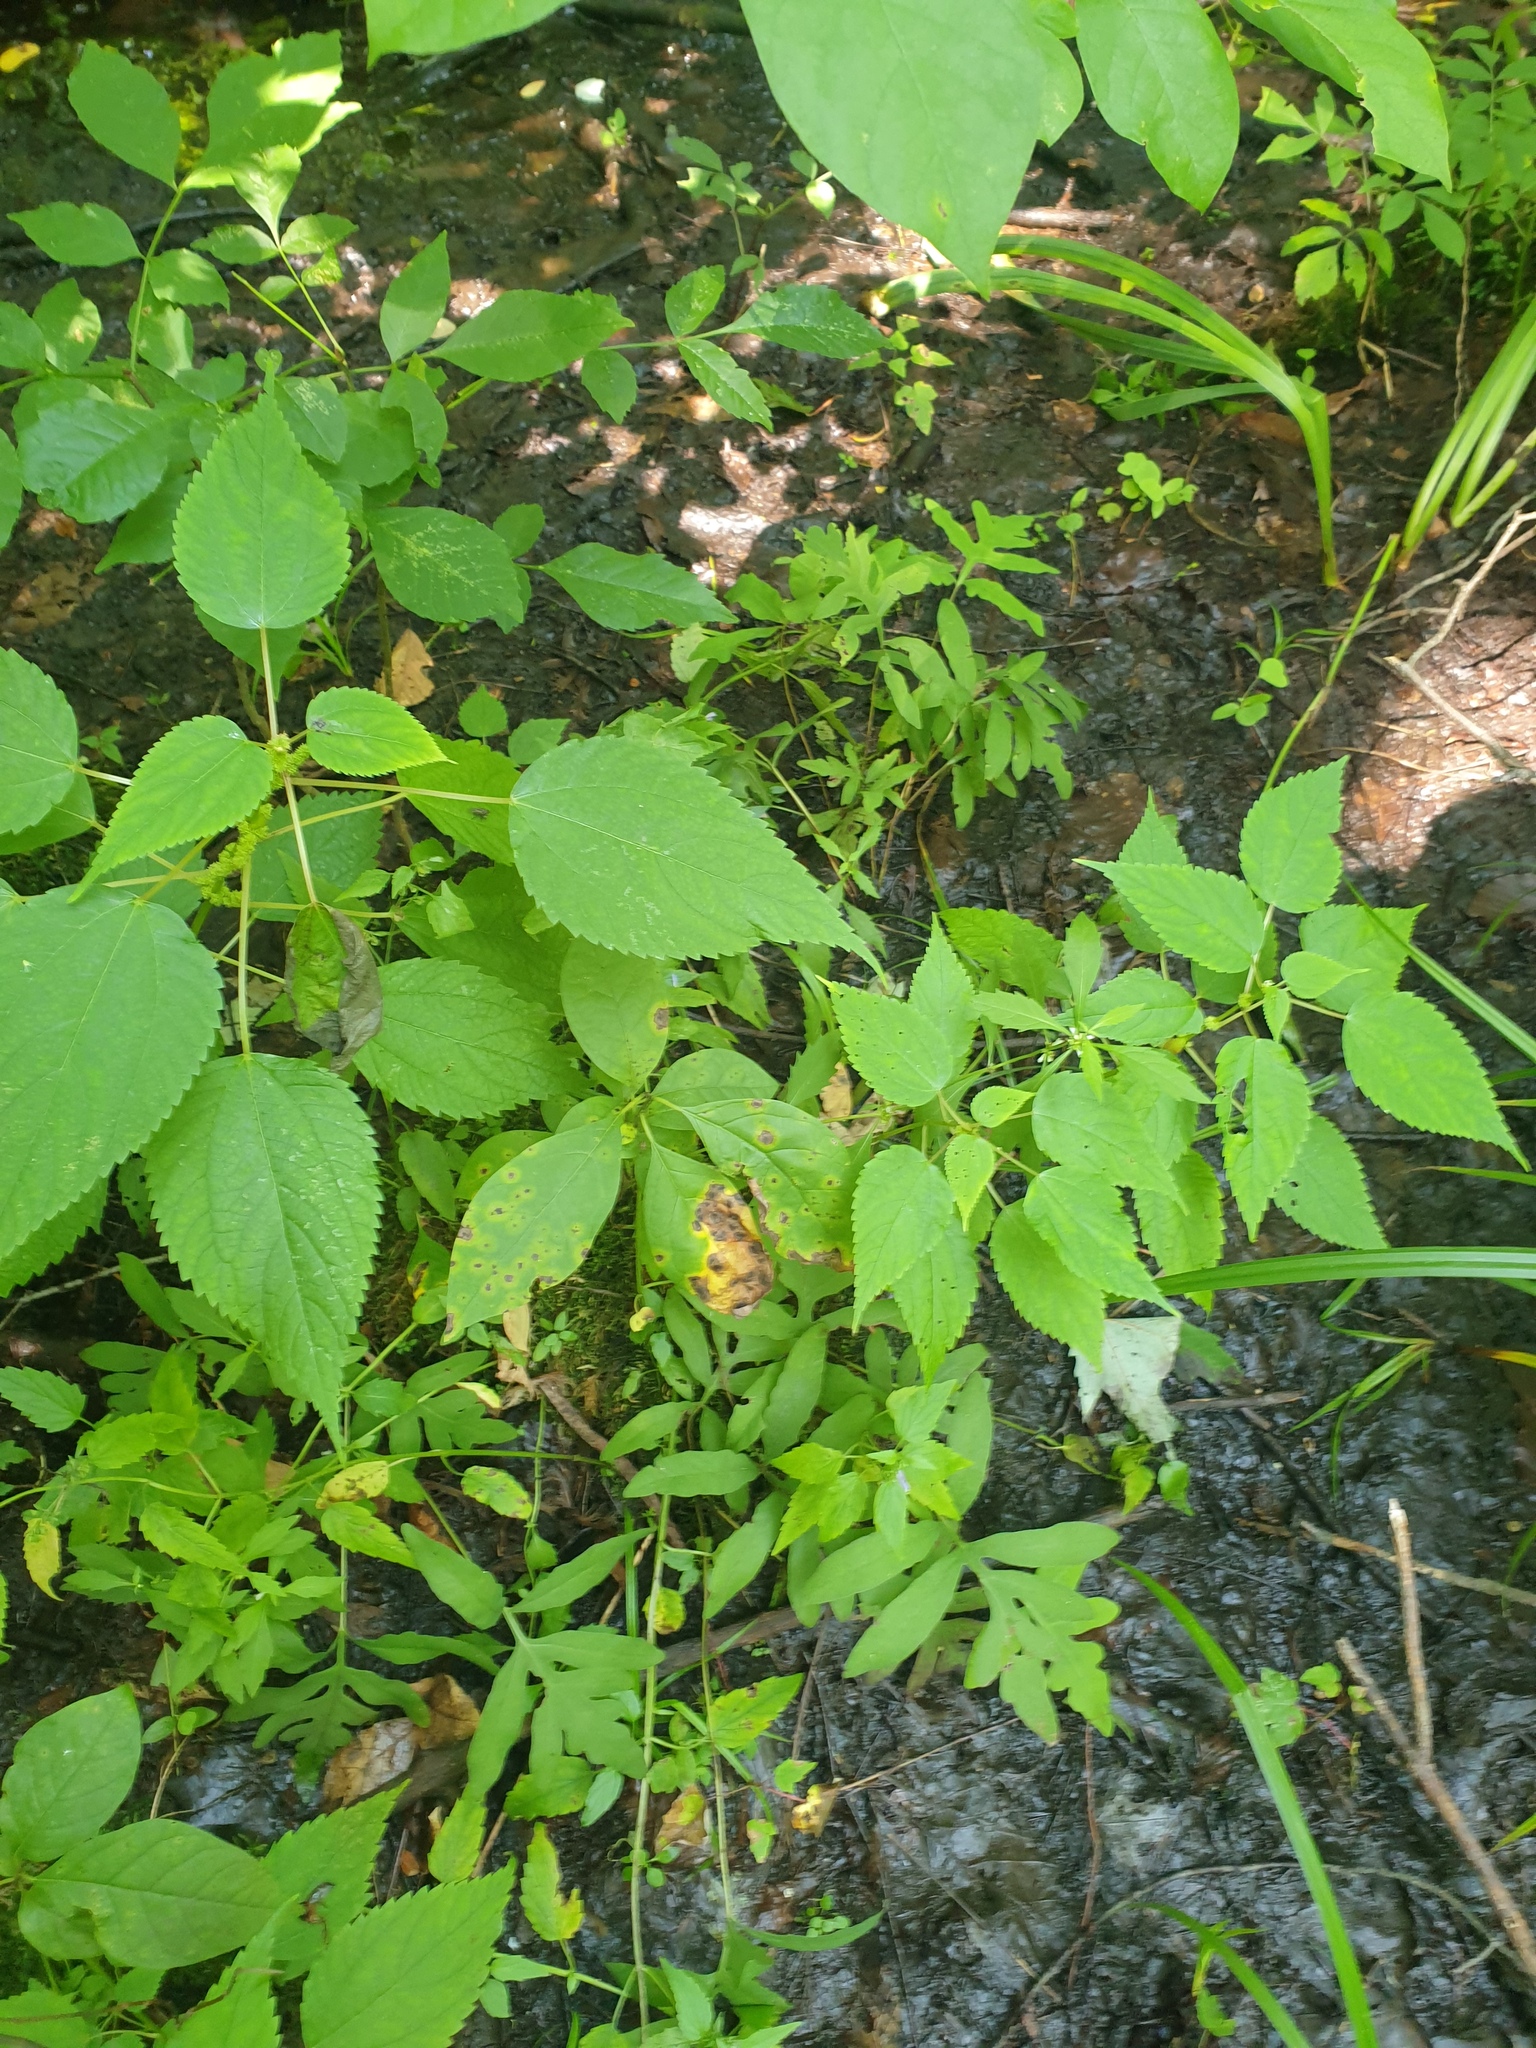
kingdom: Plantae
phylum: Tracheophyta
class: Magnoliopsida
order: Rosales
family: Urticaceae
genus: Boehmeria
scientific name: Boehmeria cylindrica
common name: Bog-hemp
